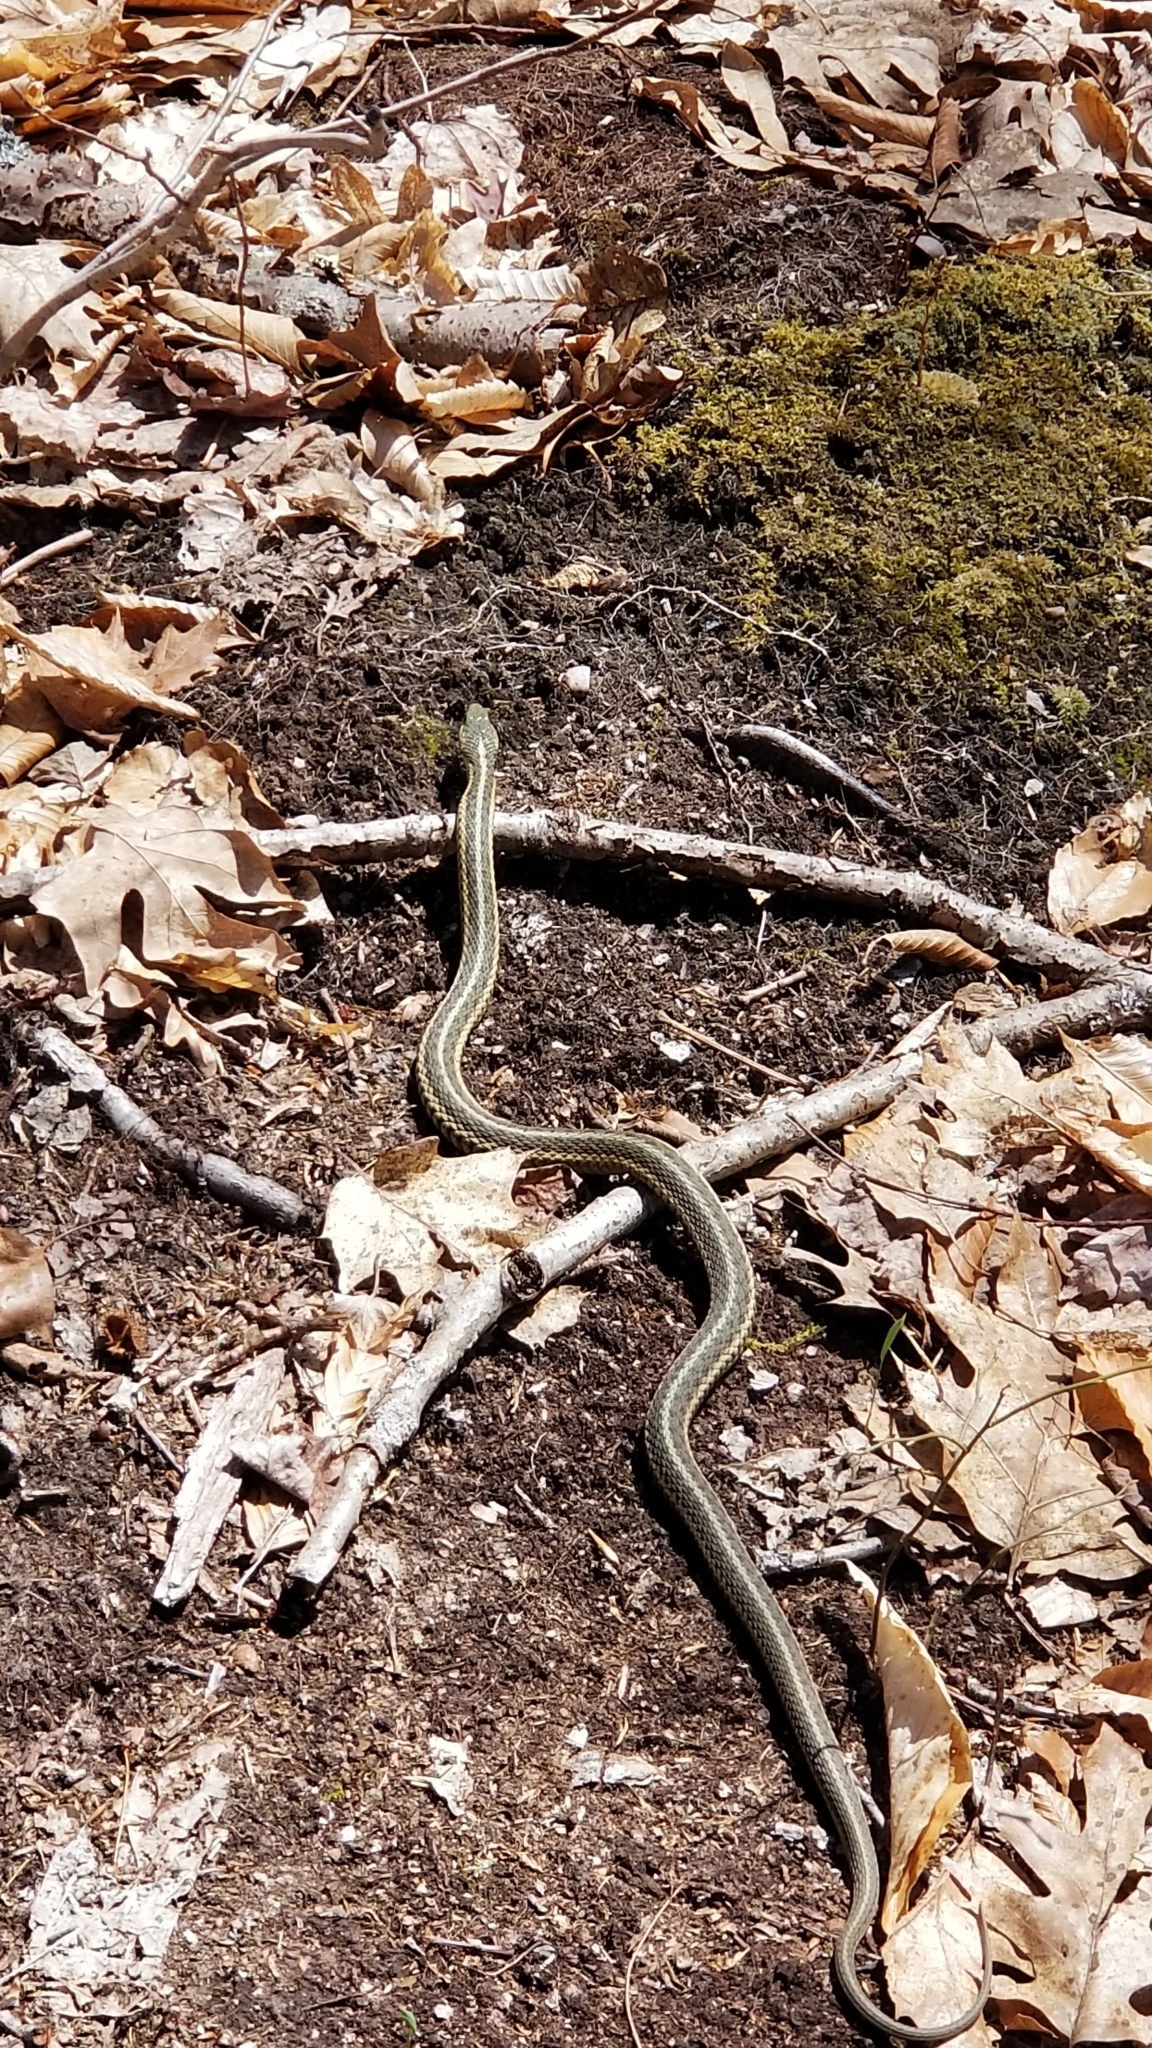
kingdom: Animalia
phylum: Chordata
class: Squamata
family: Colubridae
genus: Thamnophis
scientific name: Thamnophis sirtalis
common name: Common garter snake
